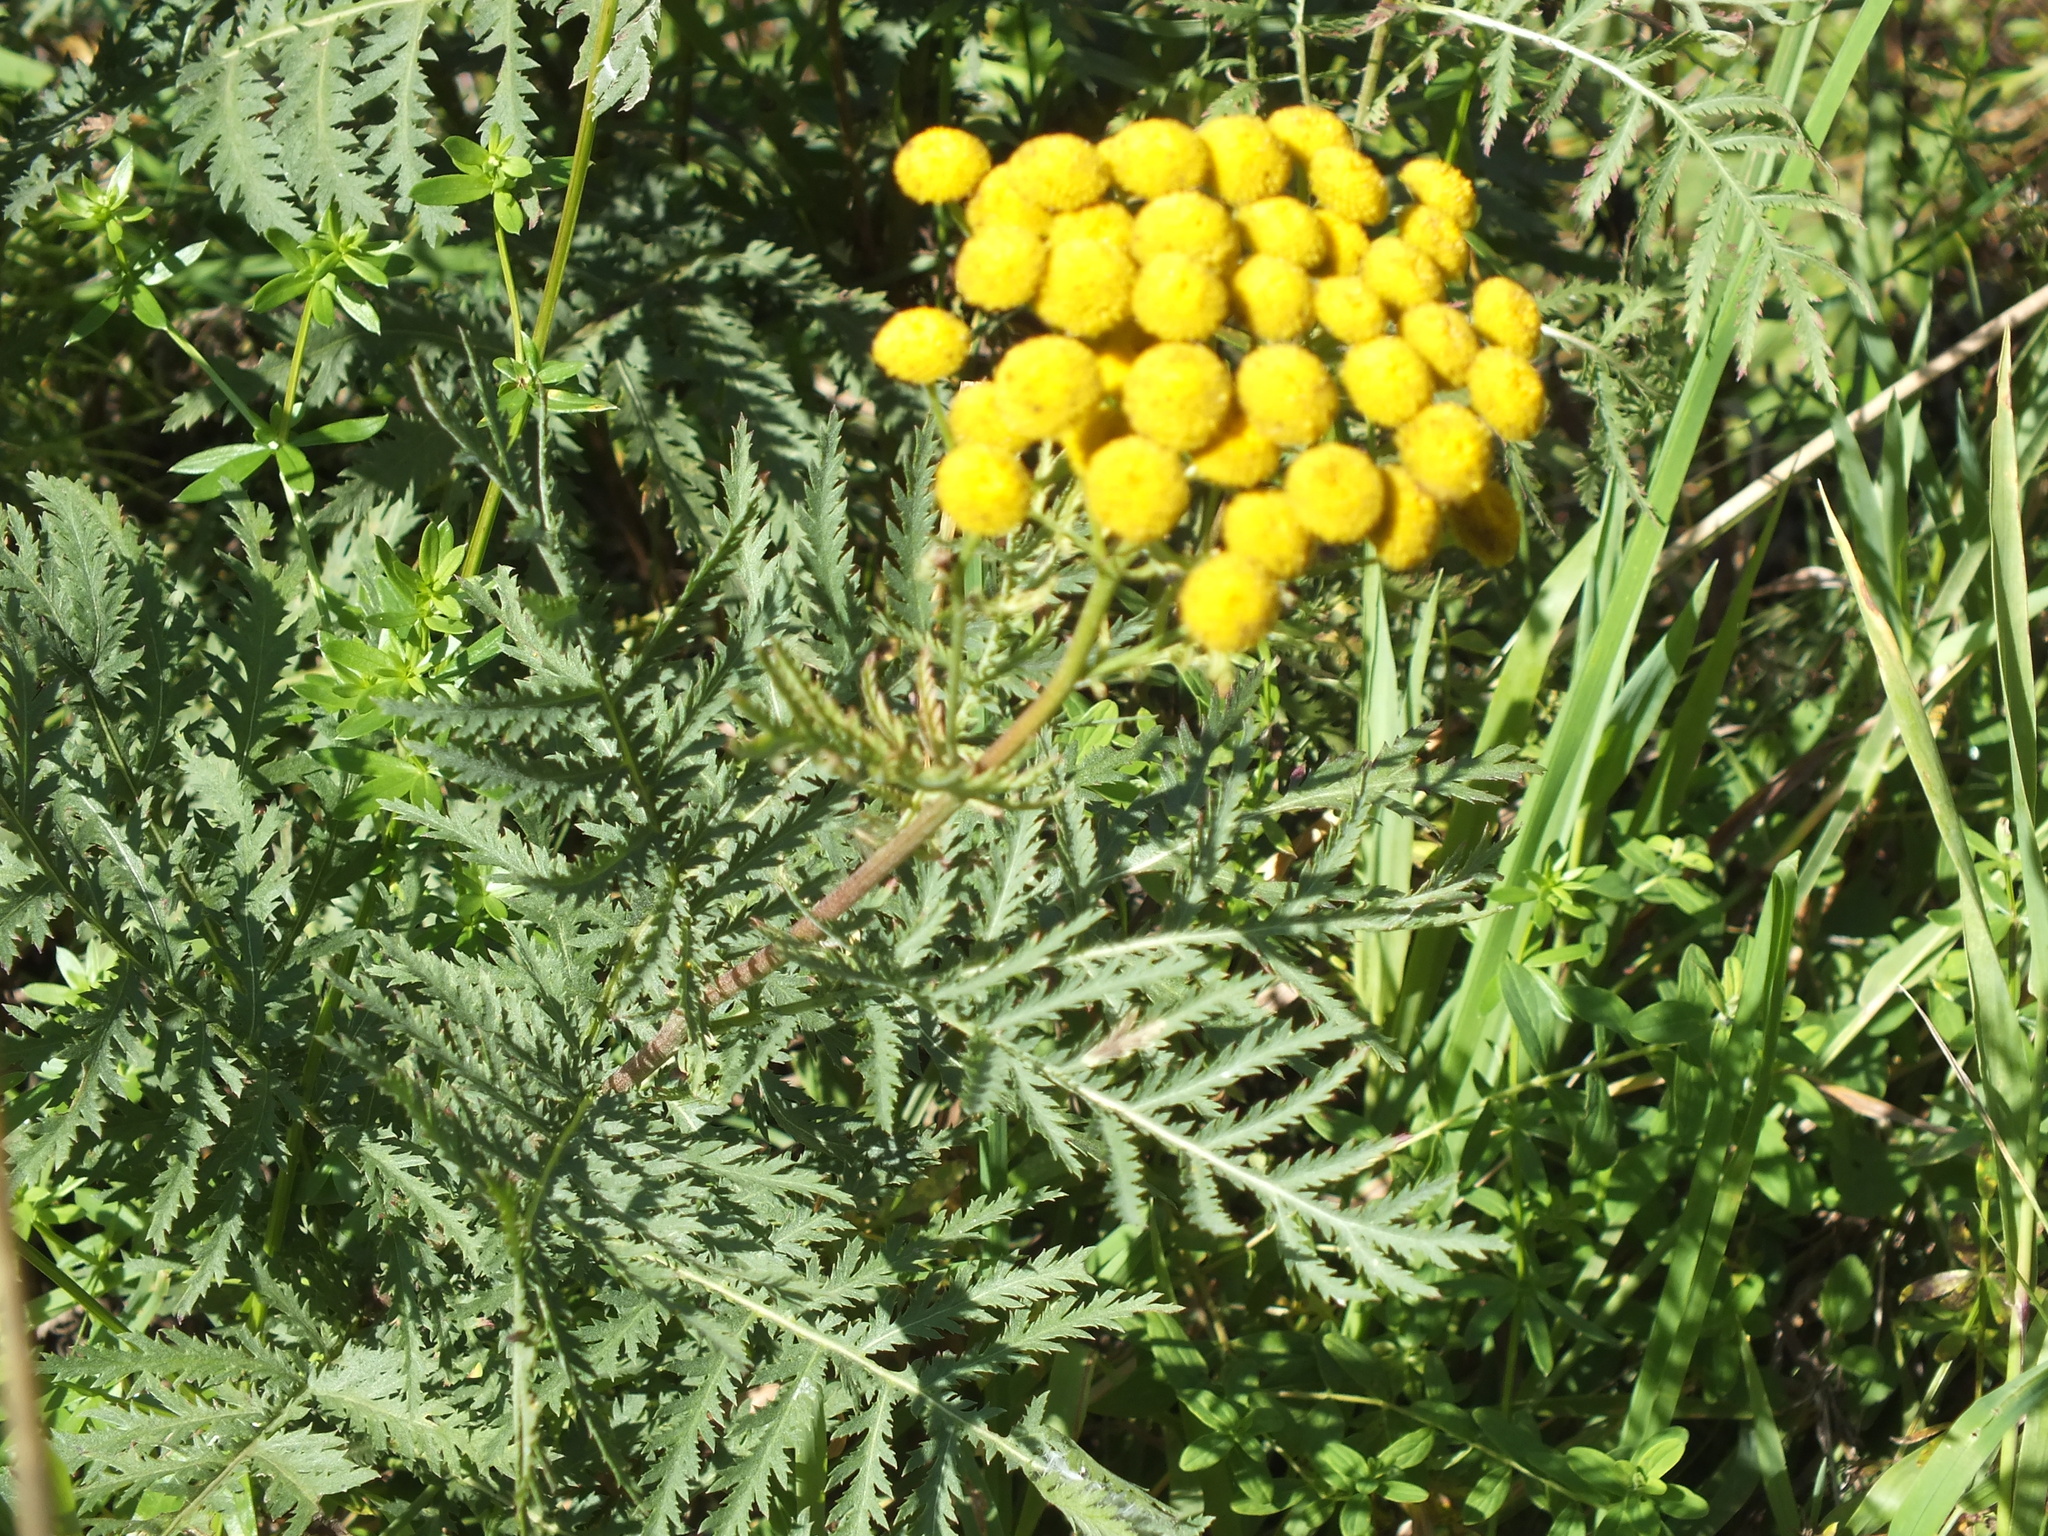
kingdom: Plantae
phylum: Tracheophyta
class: Magnoliopsida
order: Asterales
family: Asteraceae
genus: Tanacetum
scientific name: Tanacetum vulgare
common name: Common tansy
